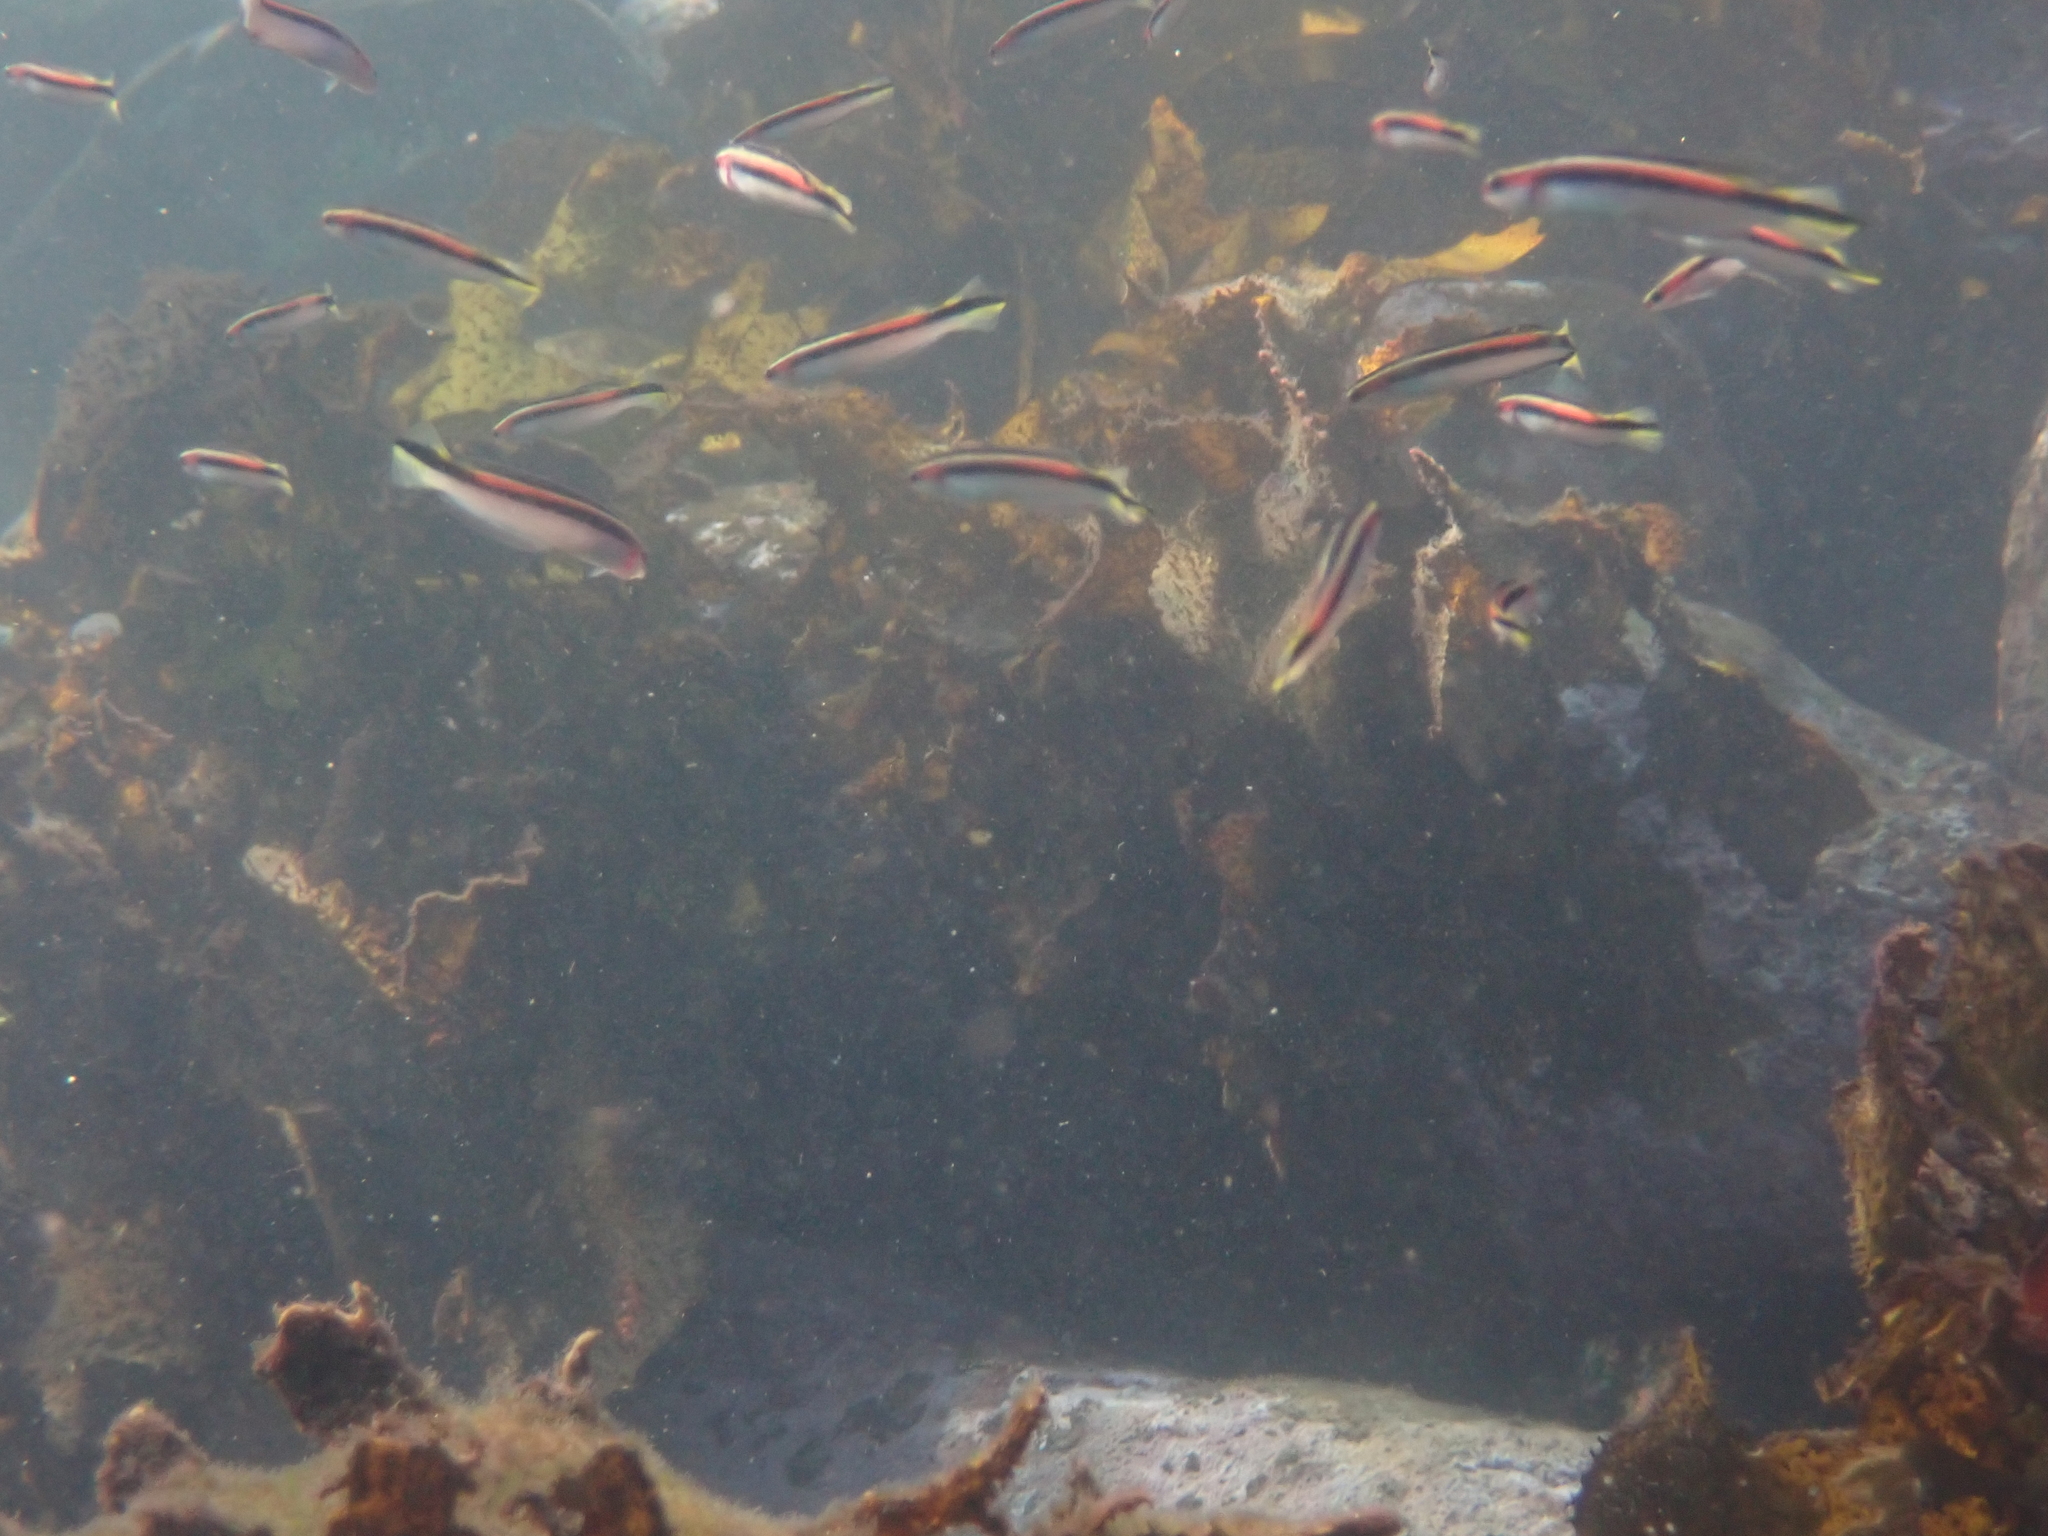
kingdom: Animalia
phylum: Chordata
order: Perciformes
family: Plesiopidae
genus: Trachinops
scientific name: Trachinops taeniatus
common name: Eastern hulafish
